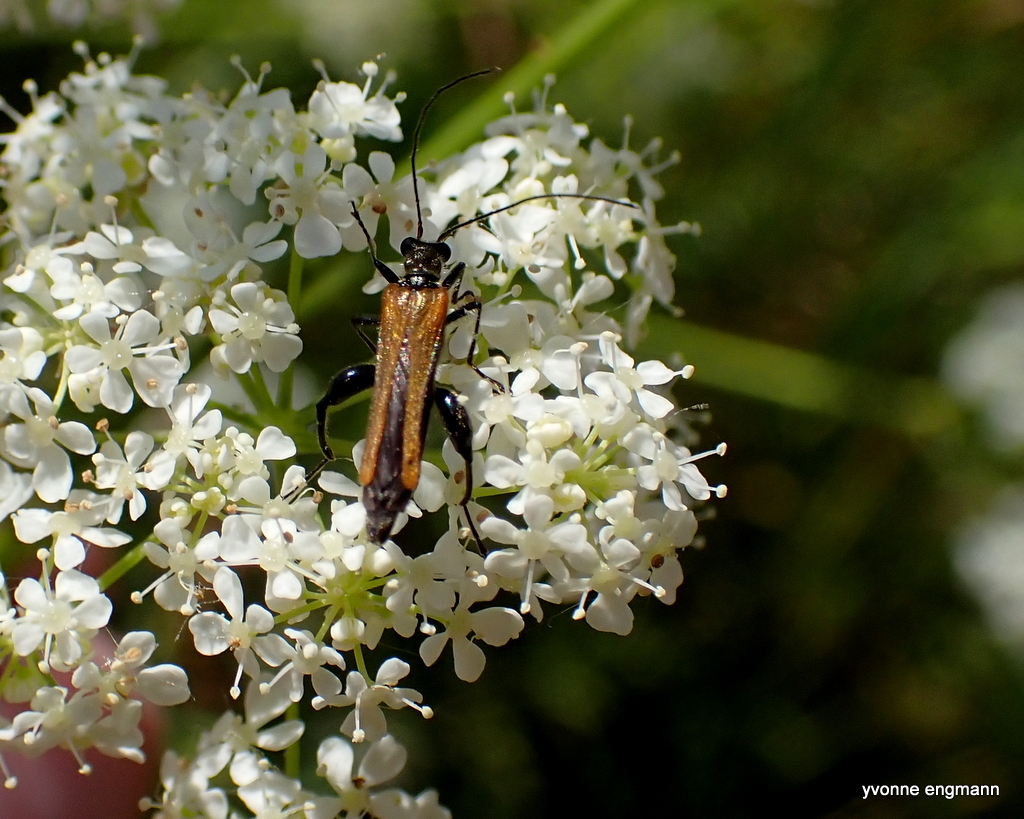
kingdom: Animalia
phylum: Arthropoda
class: Insecta
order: Coleoptera
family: Oedemeridae
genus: Oedemera
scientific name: Oedemera femorata
